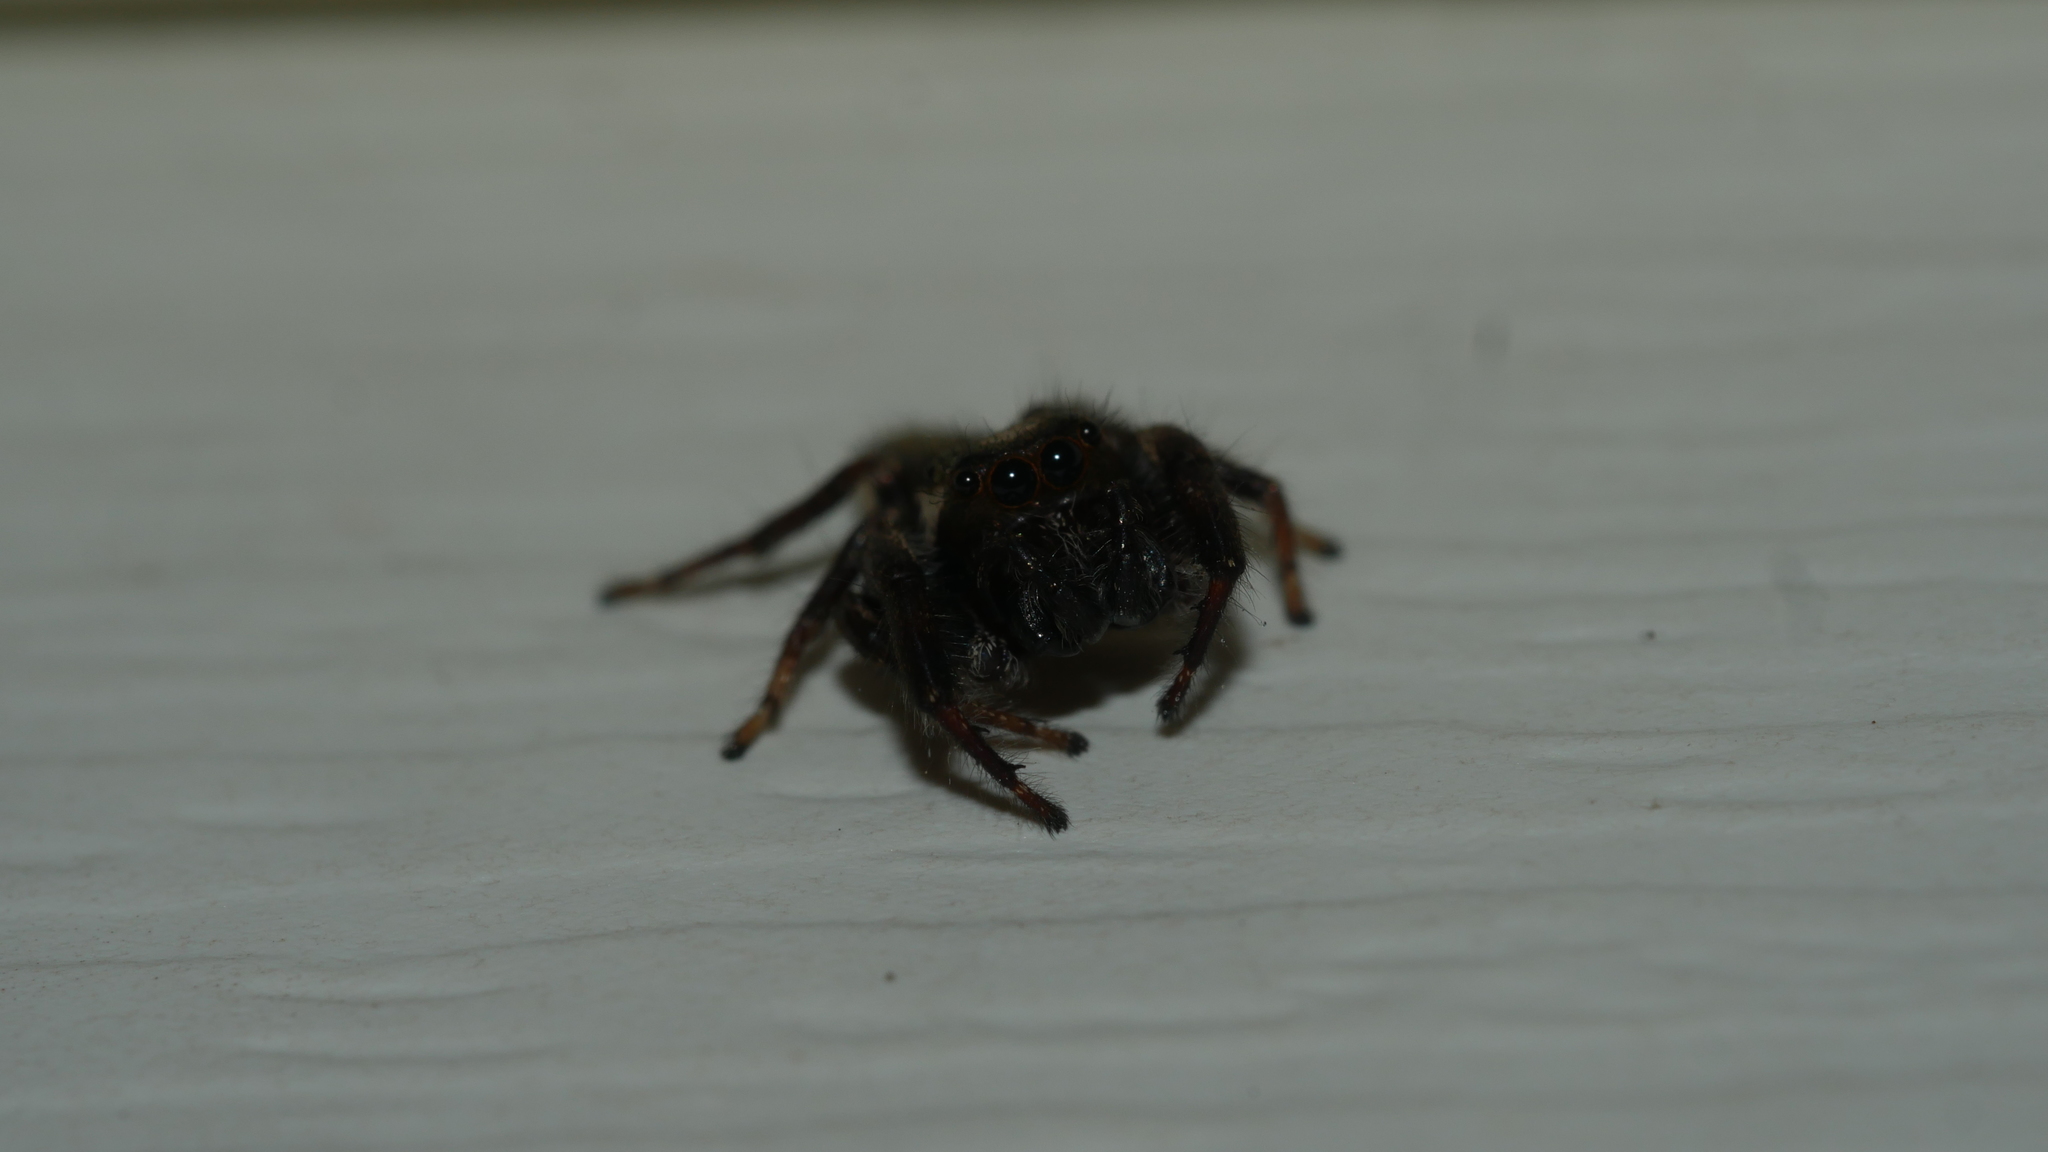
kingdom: Animalia
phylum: Arthropoda
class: Arachnida
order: Araneae
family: Salticidae
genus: Eris
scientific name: Eris militaris
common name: Bronze jumper
